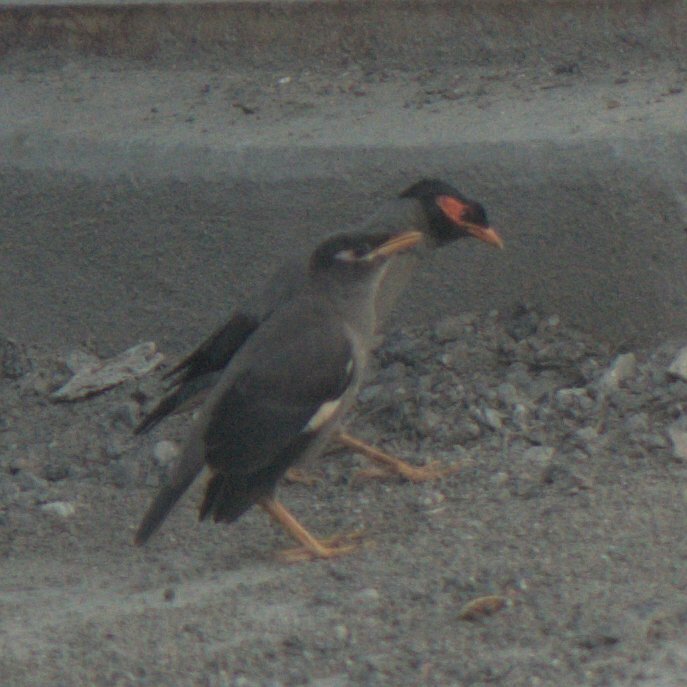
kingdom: Animalia
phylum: Chordata
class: Aves
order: Passeriformes
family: Sturnidae
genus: Acridotheres
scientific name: Acridotheres ginginianus
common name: Bank myna
